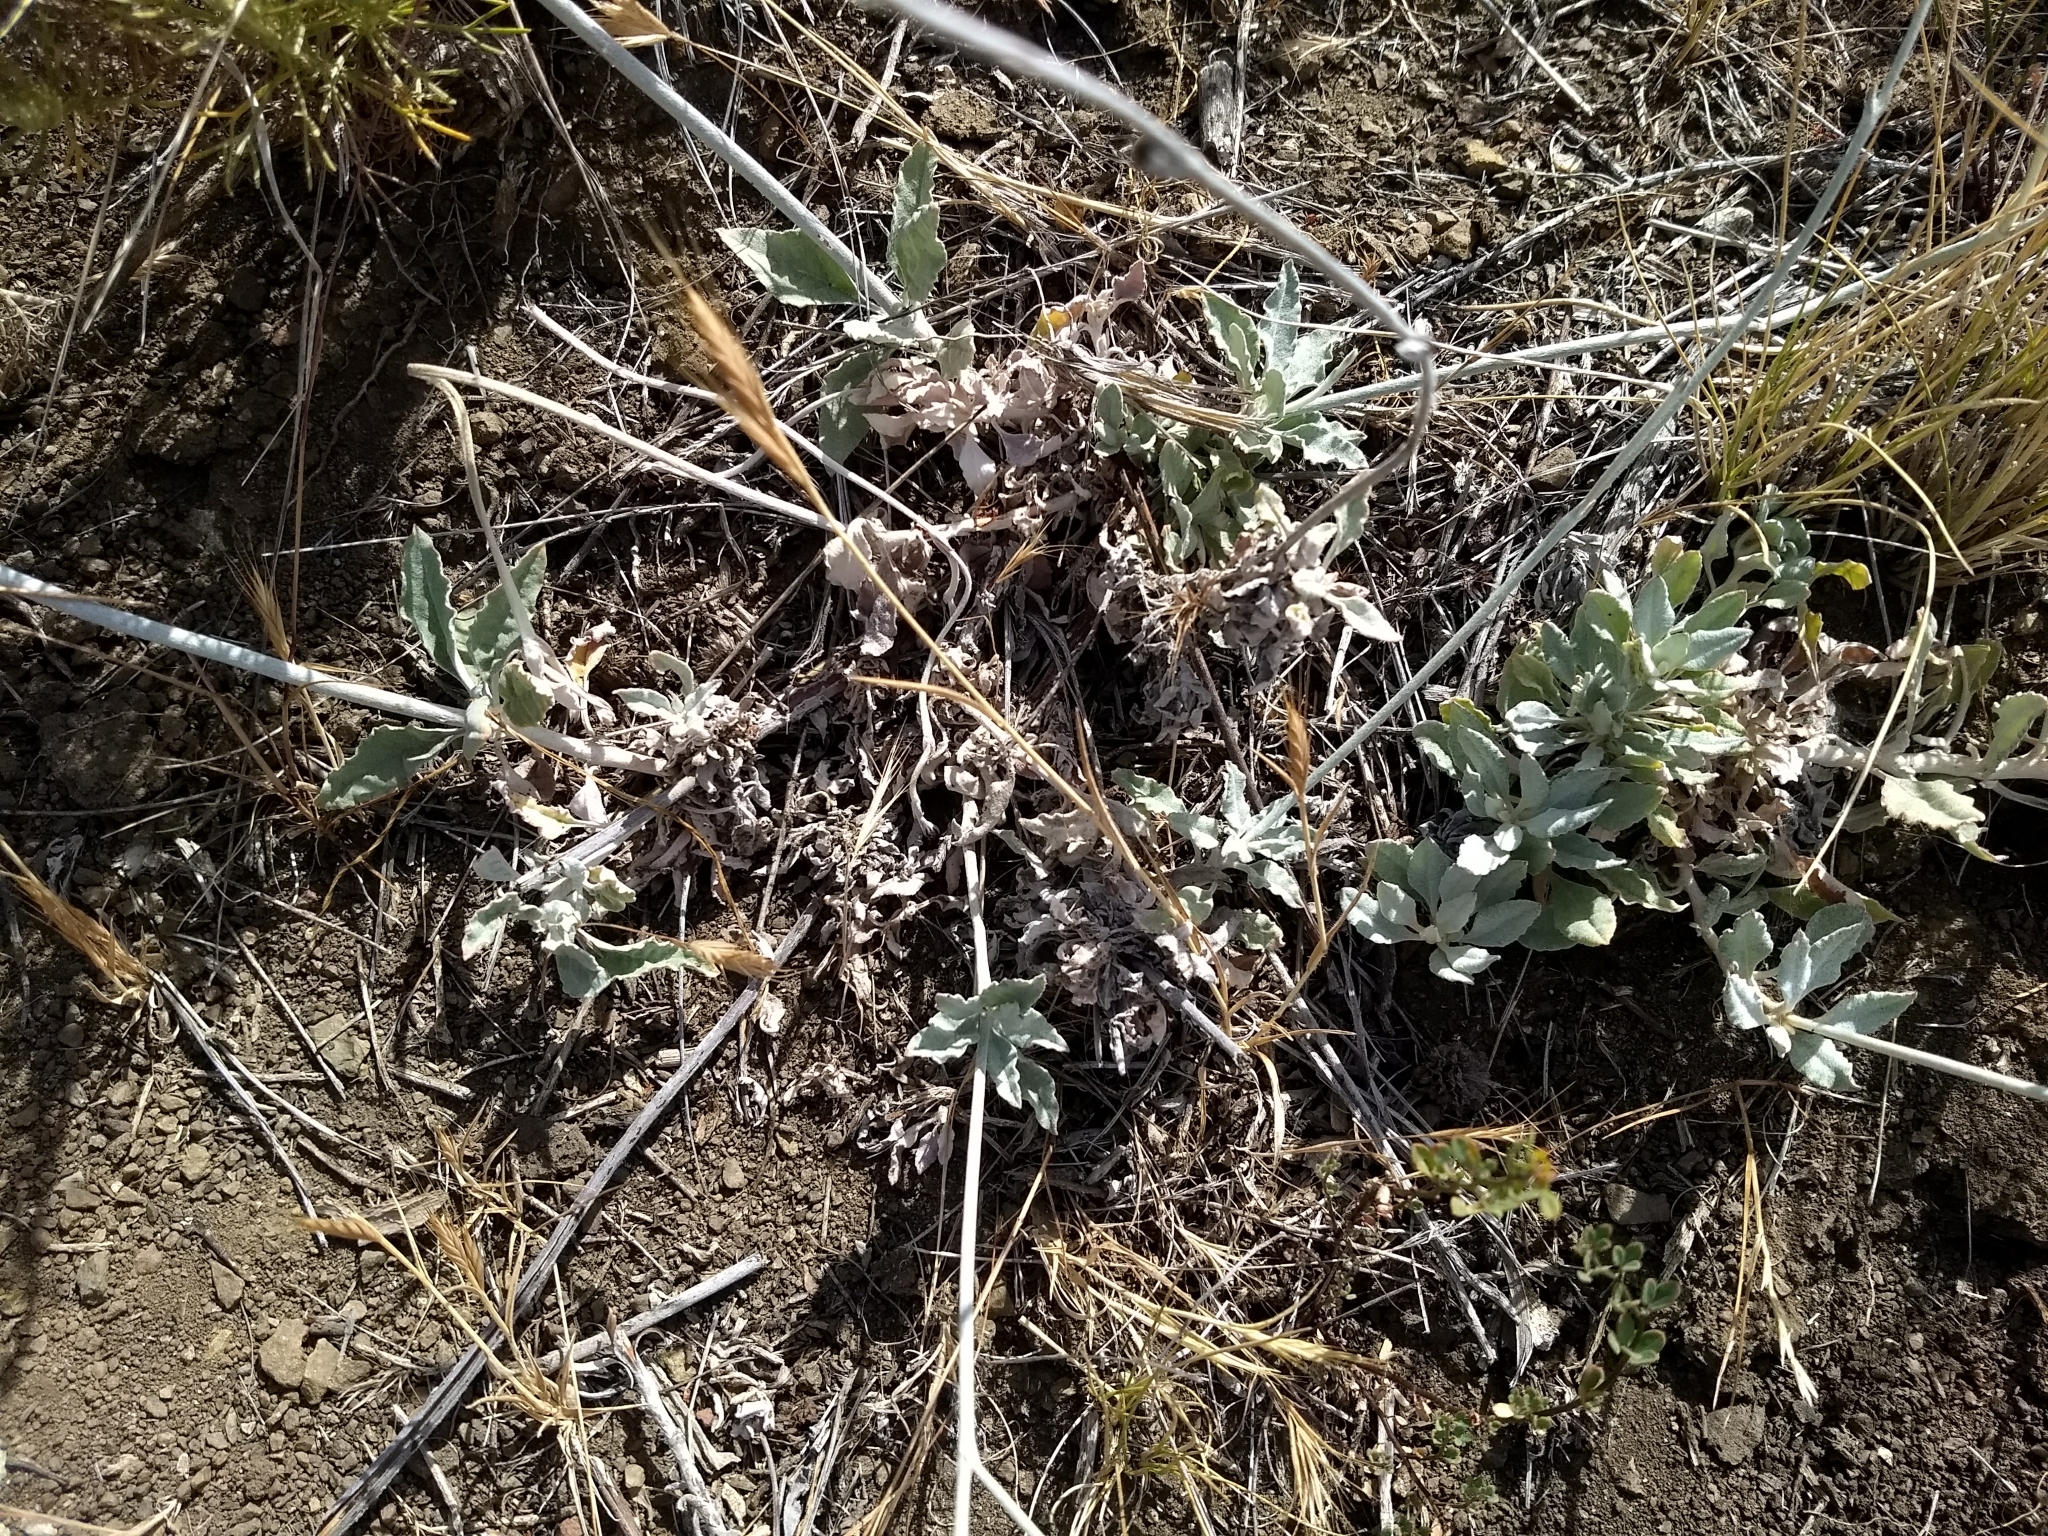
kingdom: Plantae
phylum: Tracheophyta
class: Magnoliopsida
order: Caryophyllales
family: Polygonaceae
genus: Eriogonum
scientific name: Eriogonum elongatum
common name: Long-stem wild buckwheat
